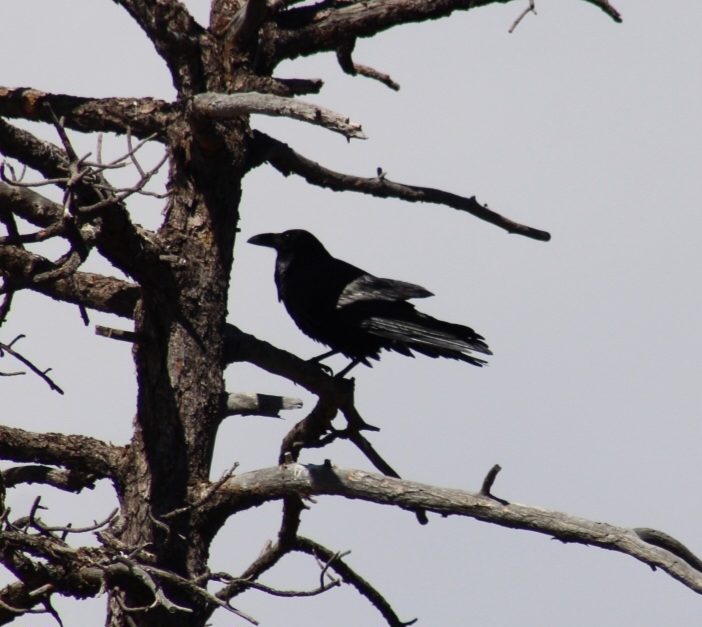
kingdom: Animalia
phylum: Chordata
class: Aves
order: Passeriformes
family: Corvidae
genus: Corvus
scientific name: Corvus corax
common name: Common raven
